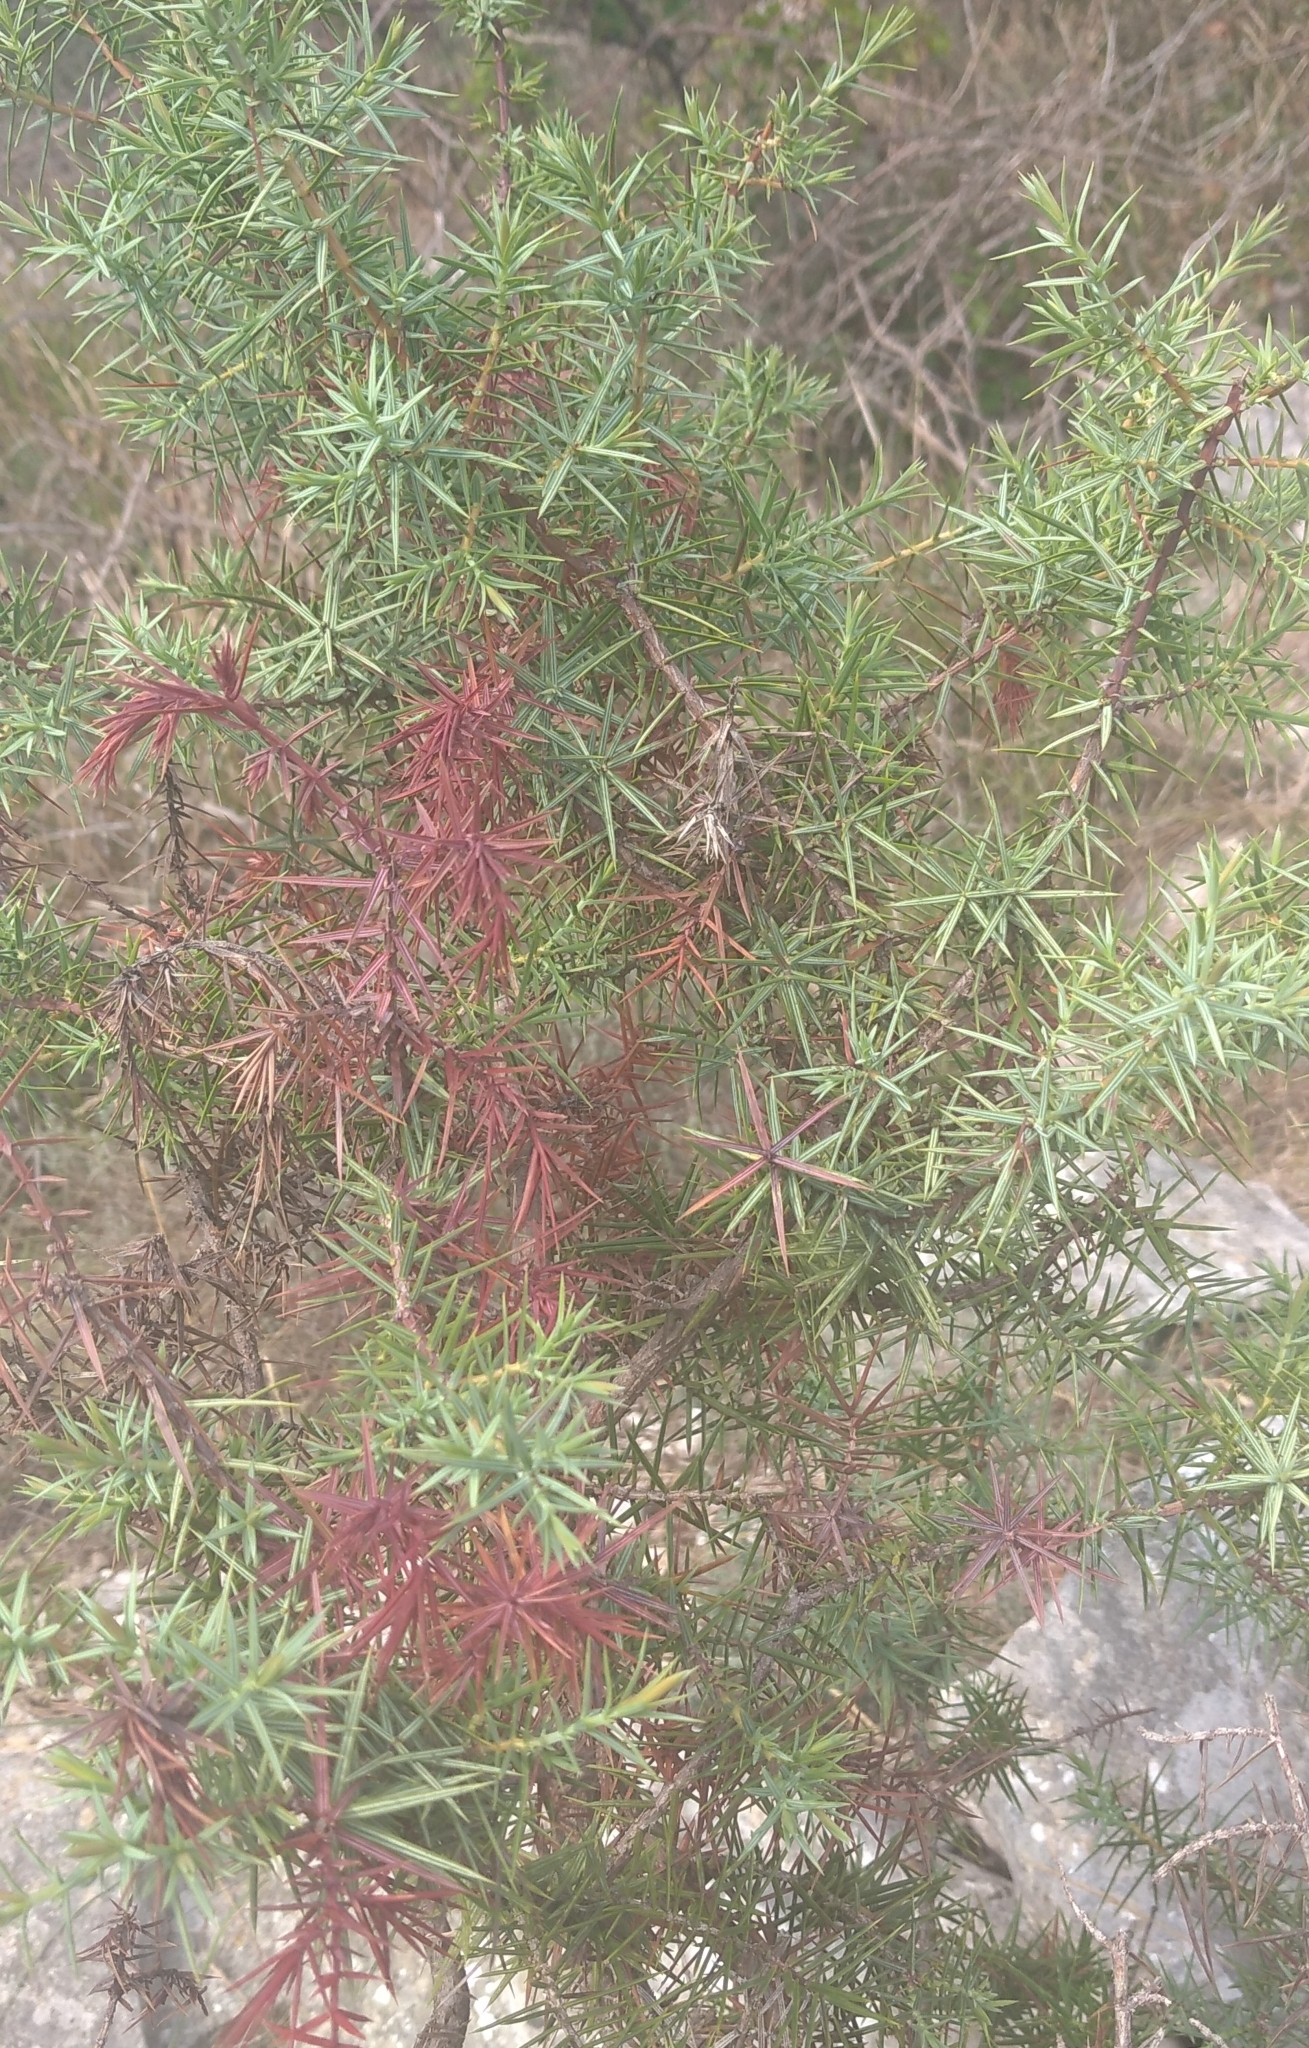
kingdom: Plantae
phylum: Tracheophyta
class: Pinopsida
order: Pinales
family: Cupressaceae
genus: Juniperus
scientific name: Juniperus oxycedrus
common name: Prickly juniper
